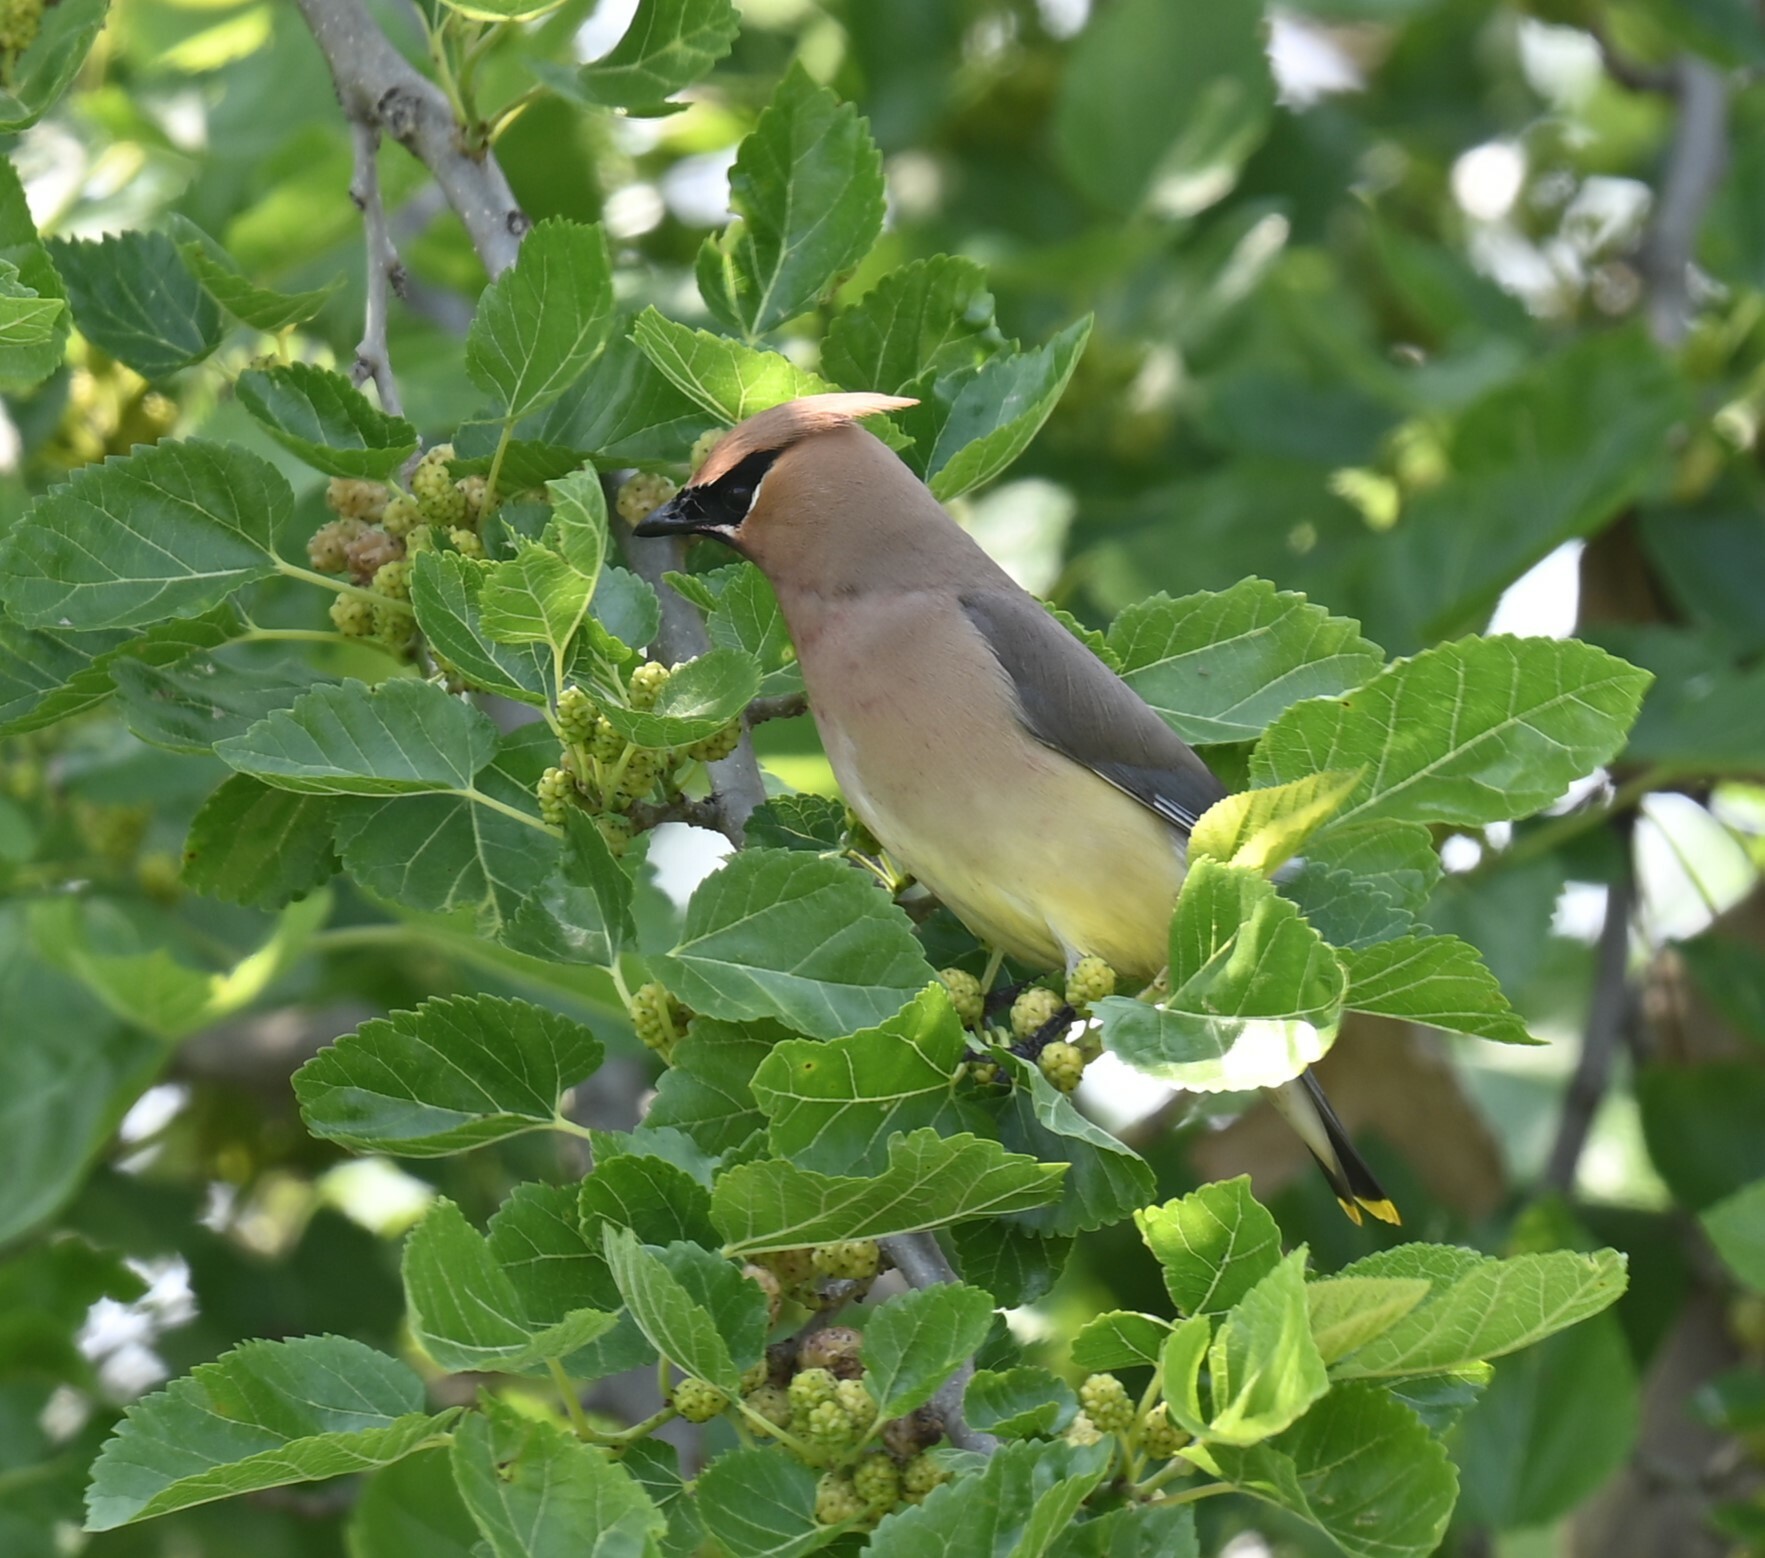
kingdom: Animalia
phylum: Chordata
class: Aves
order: Passeriformes
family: Bombycillidae
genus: Bombycilla
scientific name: Bombycilla cedrorum
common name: Cedar waxwing
